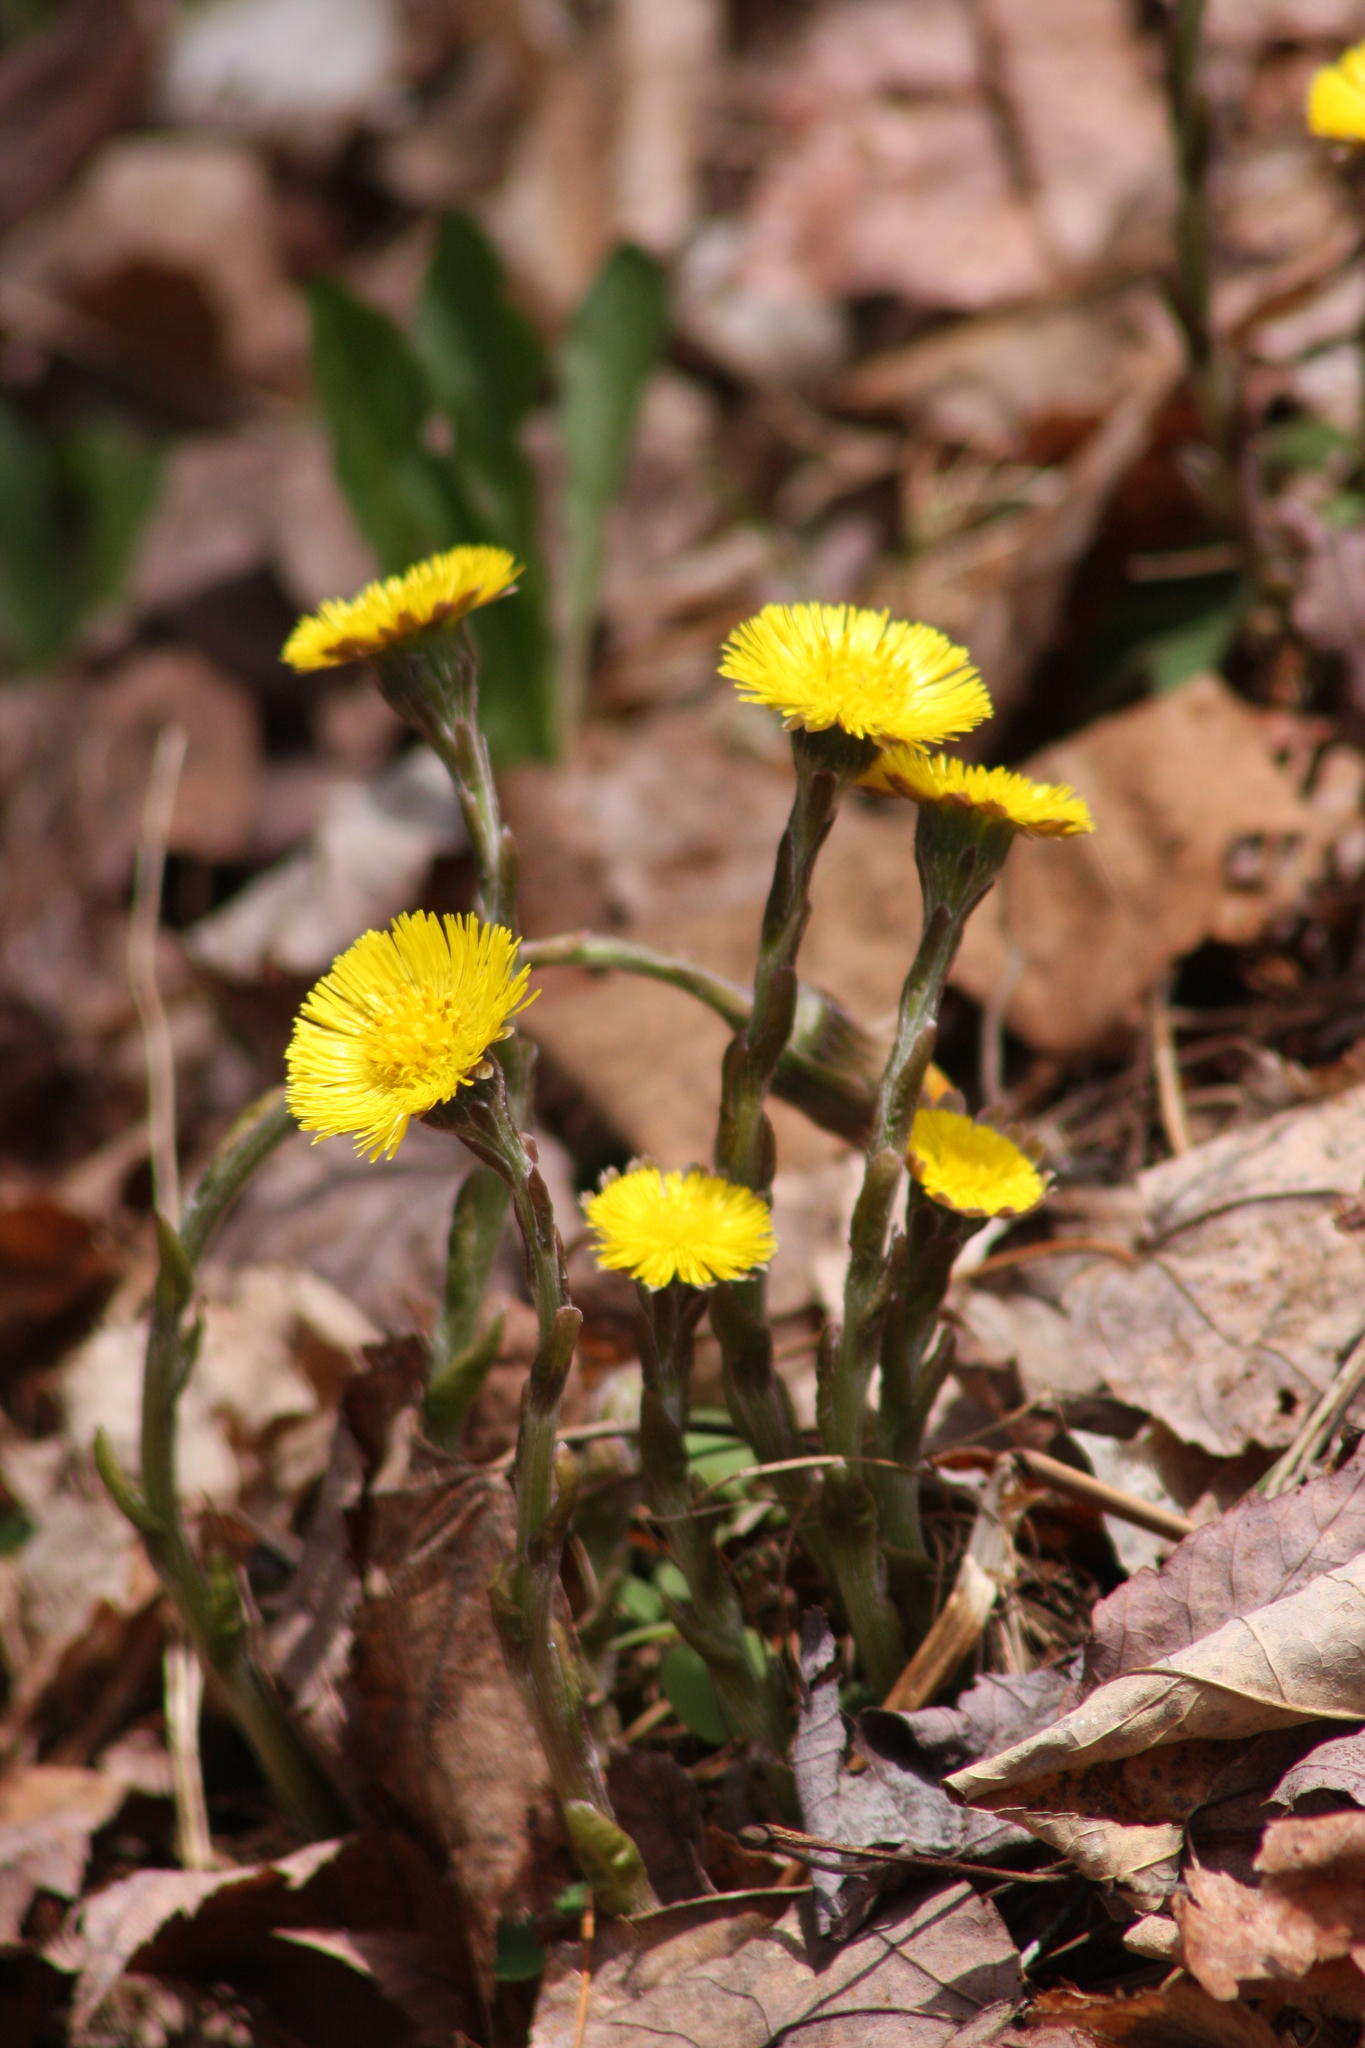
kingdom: Plantae
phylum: Tracheophyta
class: Magnoliopsida
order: Asterales
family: Asteraceae
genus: Tussilago
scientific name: Tussilago farfara
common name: Coltsfoot
